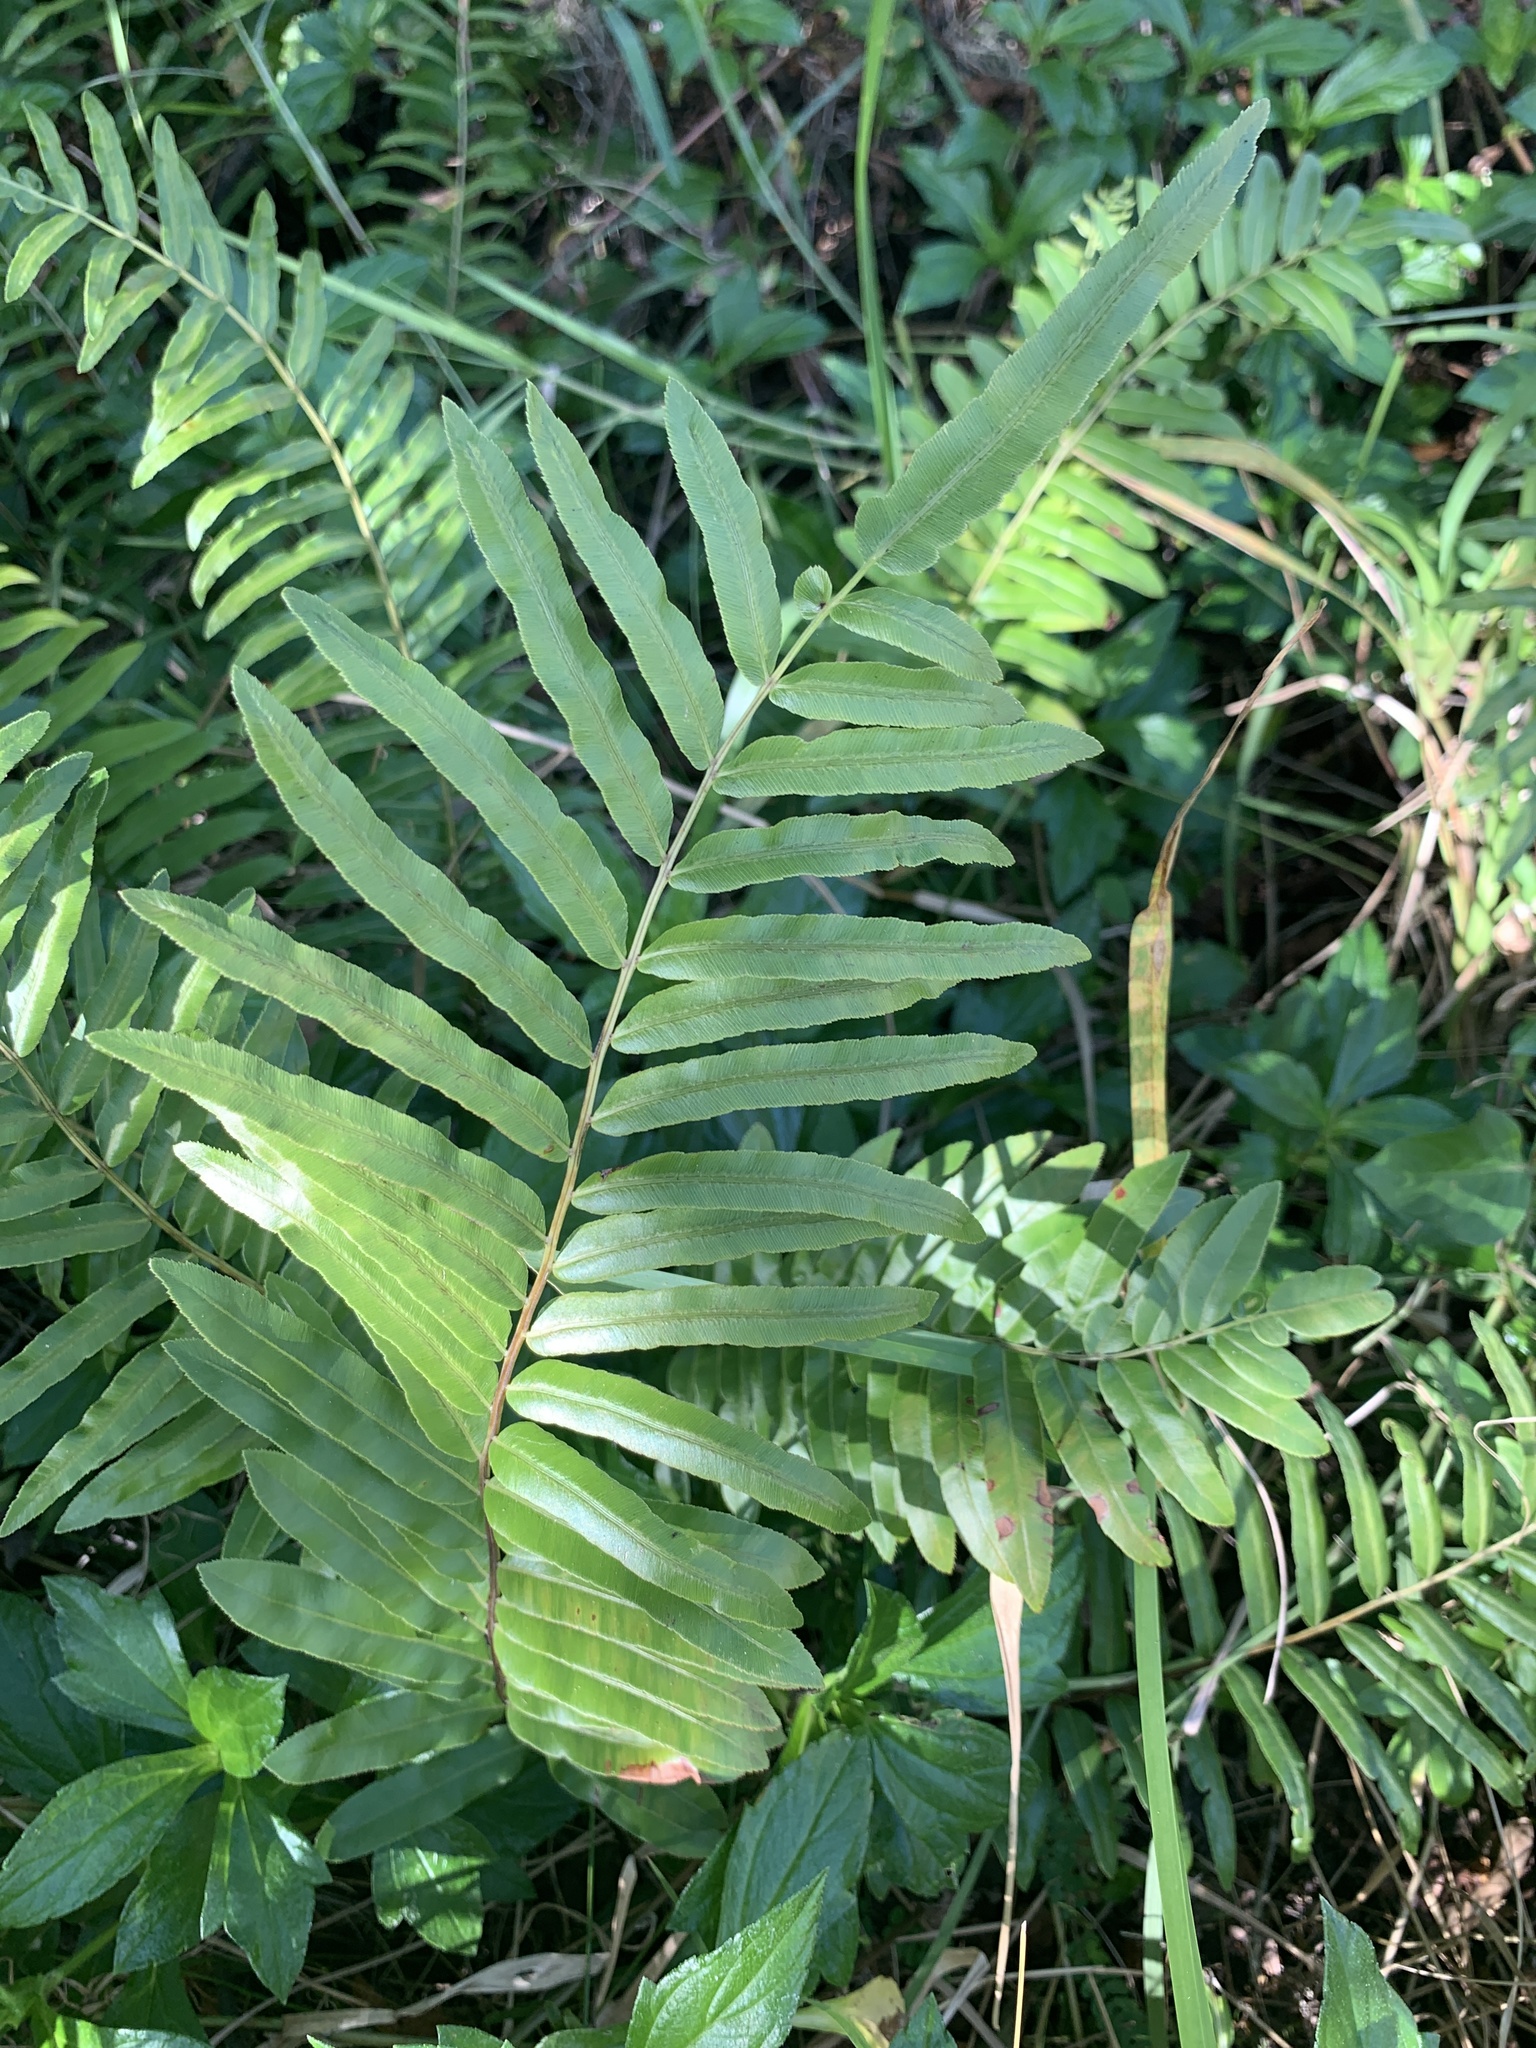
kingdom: Plantae
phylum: Tracheophyta
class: Polypodiopsida
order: Polypodiales
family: Blechnaceae
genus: Telmatoblechnum
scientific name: Telmatoblechnum serrulatum
